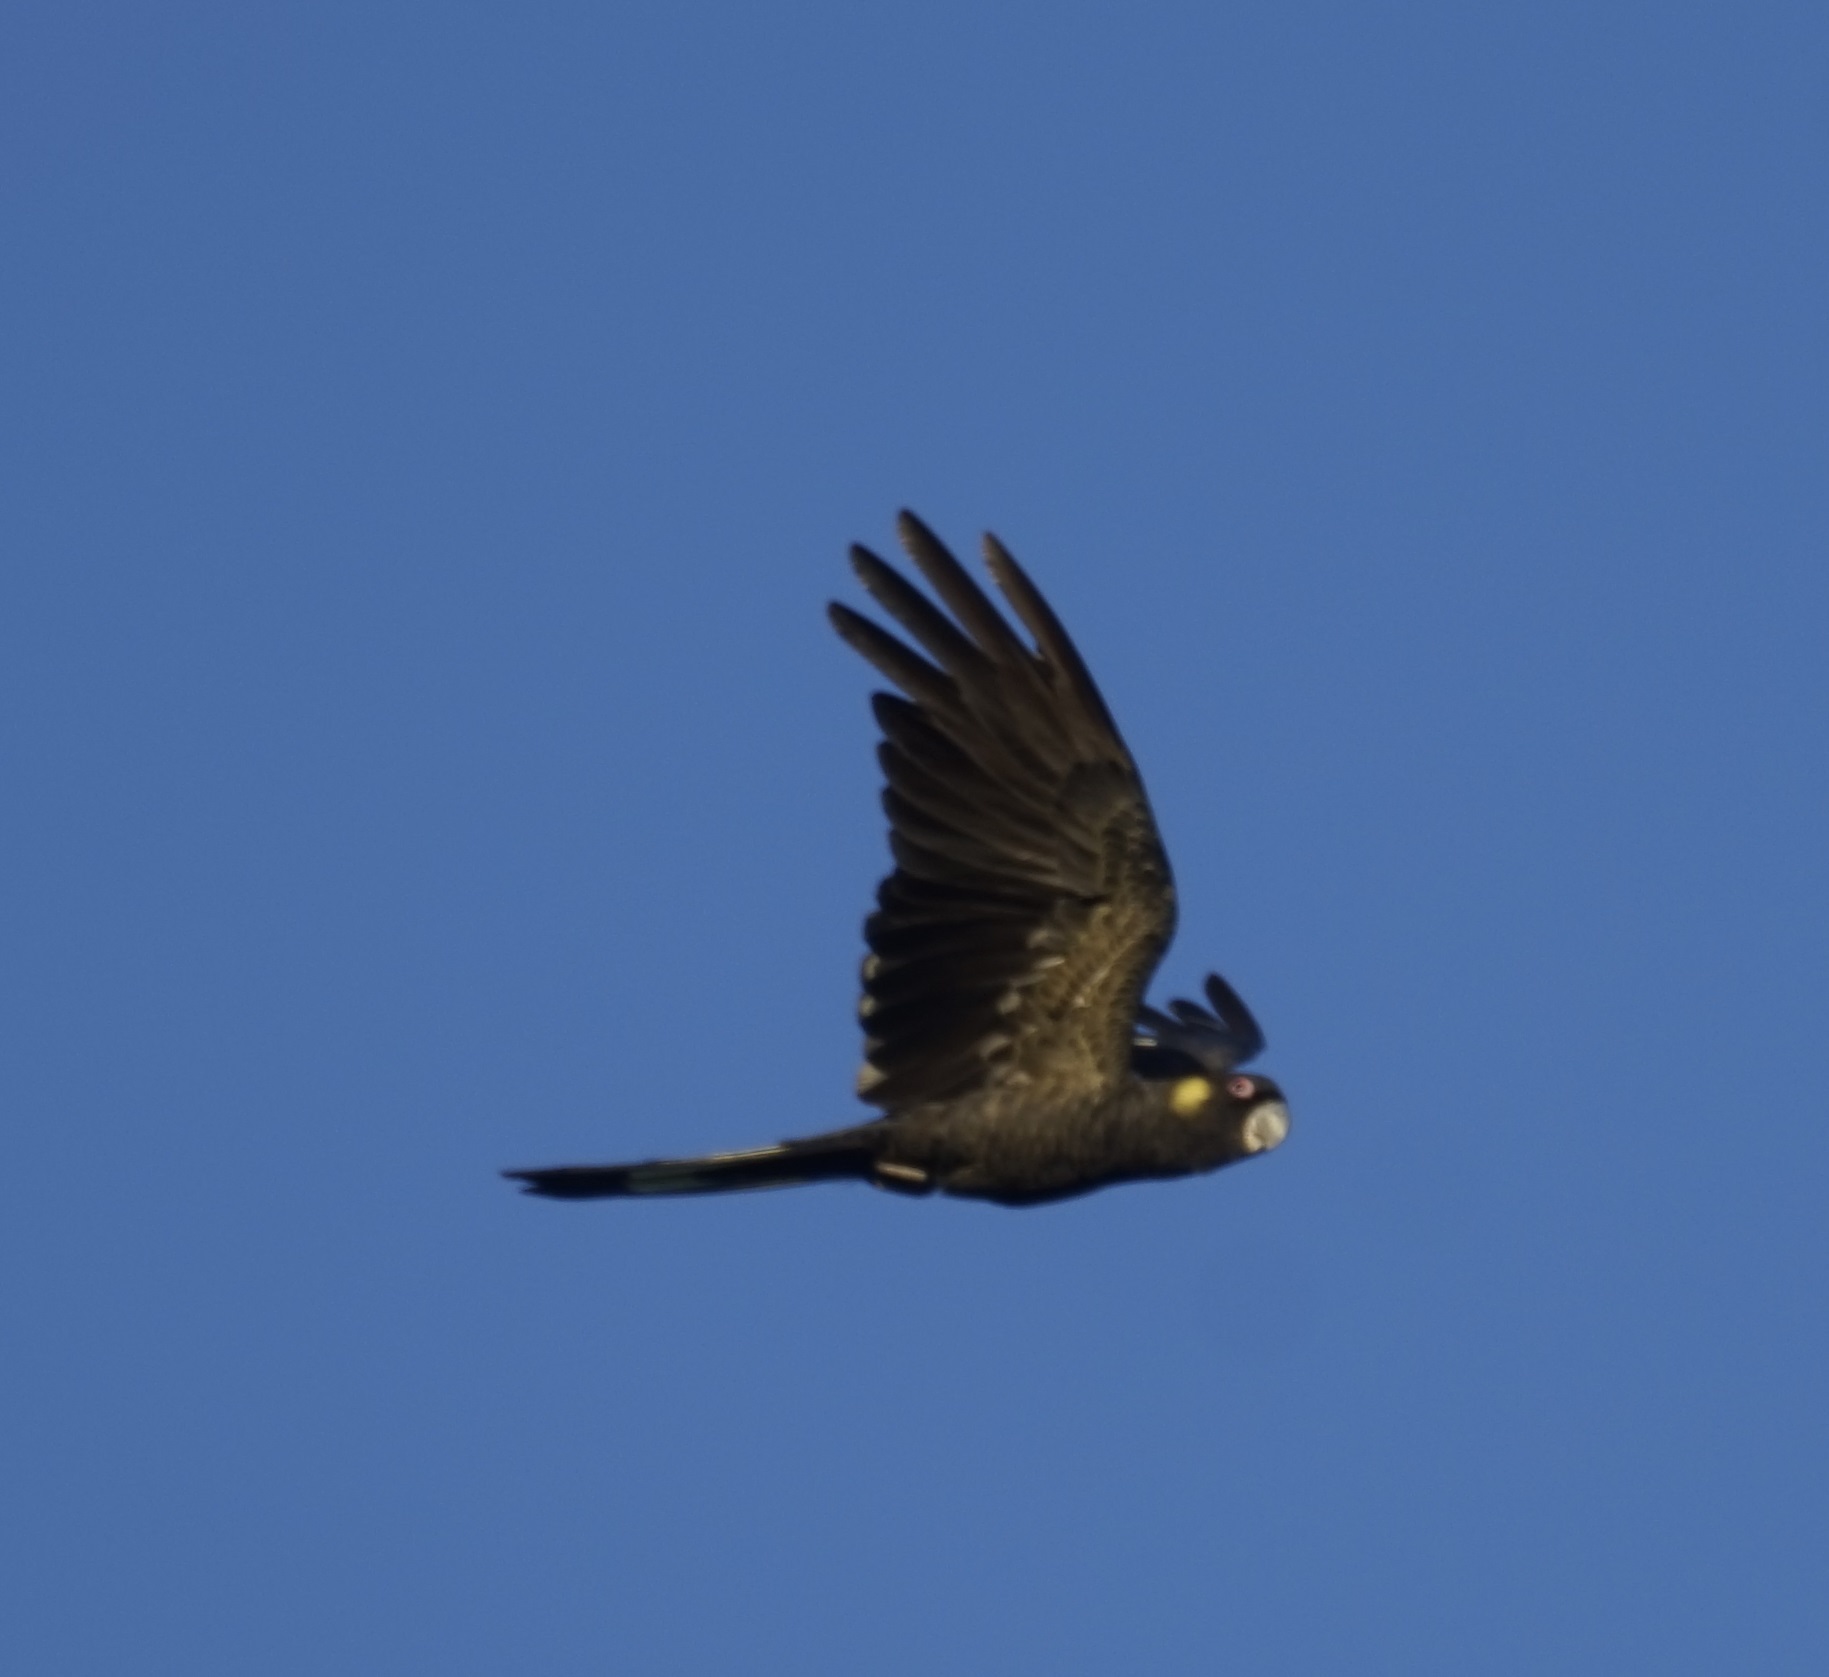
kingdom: Animalia
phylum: Chordata
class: Aves
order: Psittaciformes
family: Cacatuidae
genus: Zanda
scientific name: Zanda funerea
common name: Yellow-tailed black-cockatoo
